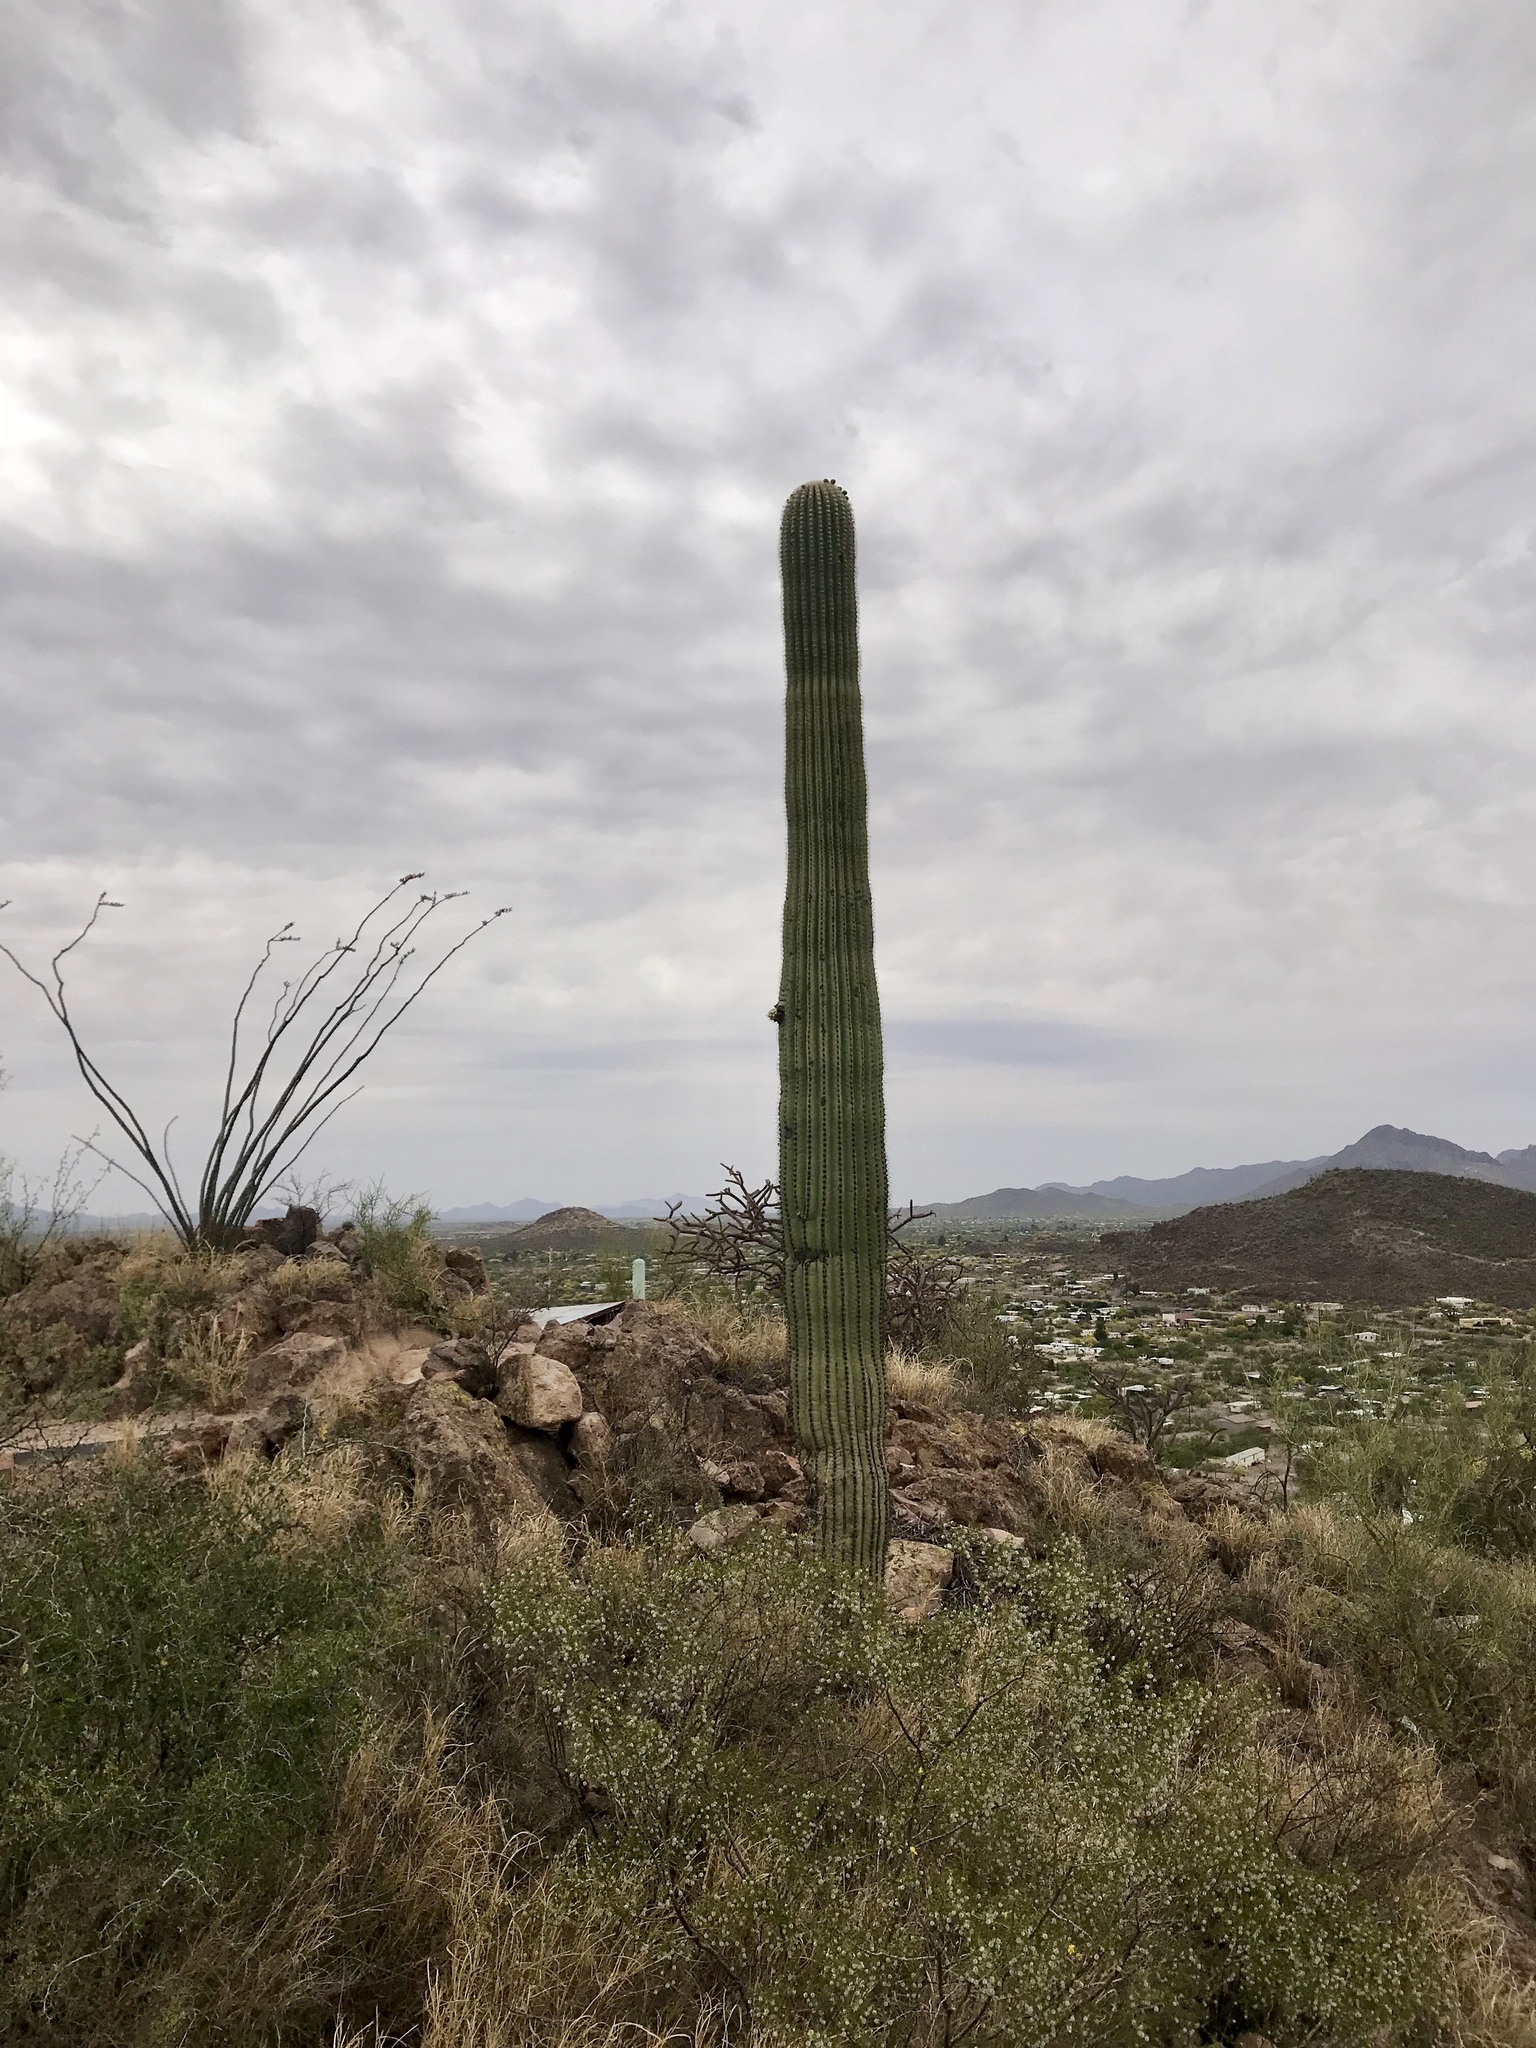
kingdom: Plantae
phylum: Tracheophyta
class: Magnoliopsida
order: Caryophyllales
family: Cactaceae
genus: Carnegiea
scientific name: Carnegiea gigantea
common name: Saguaro
